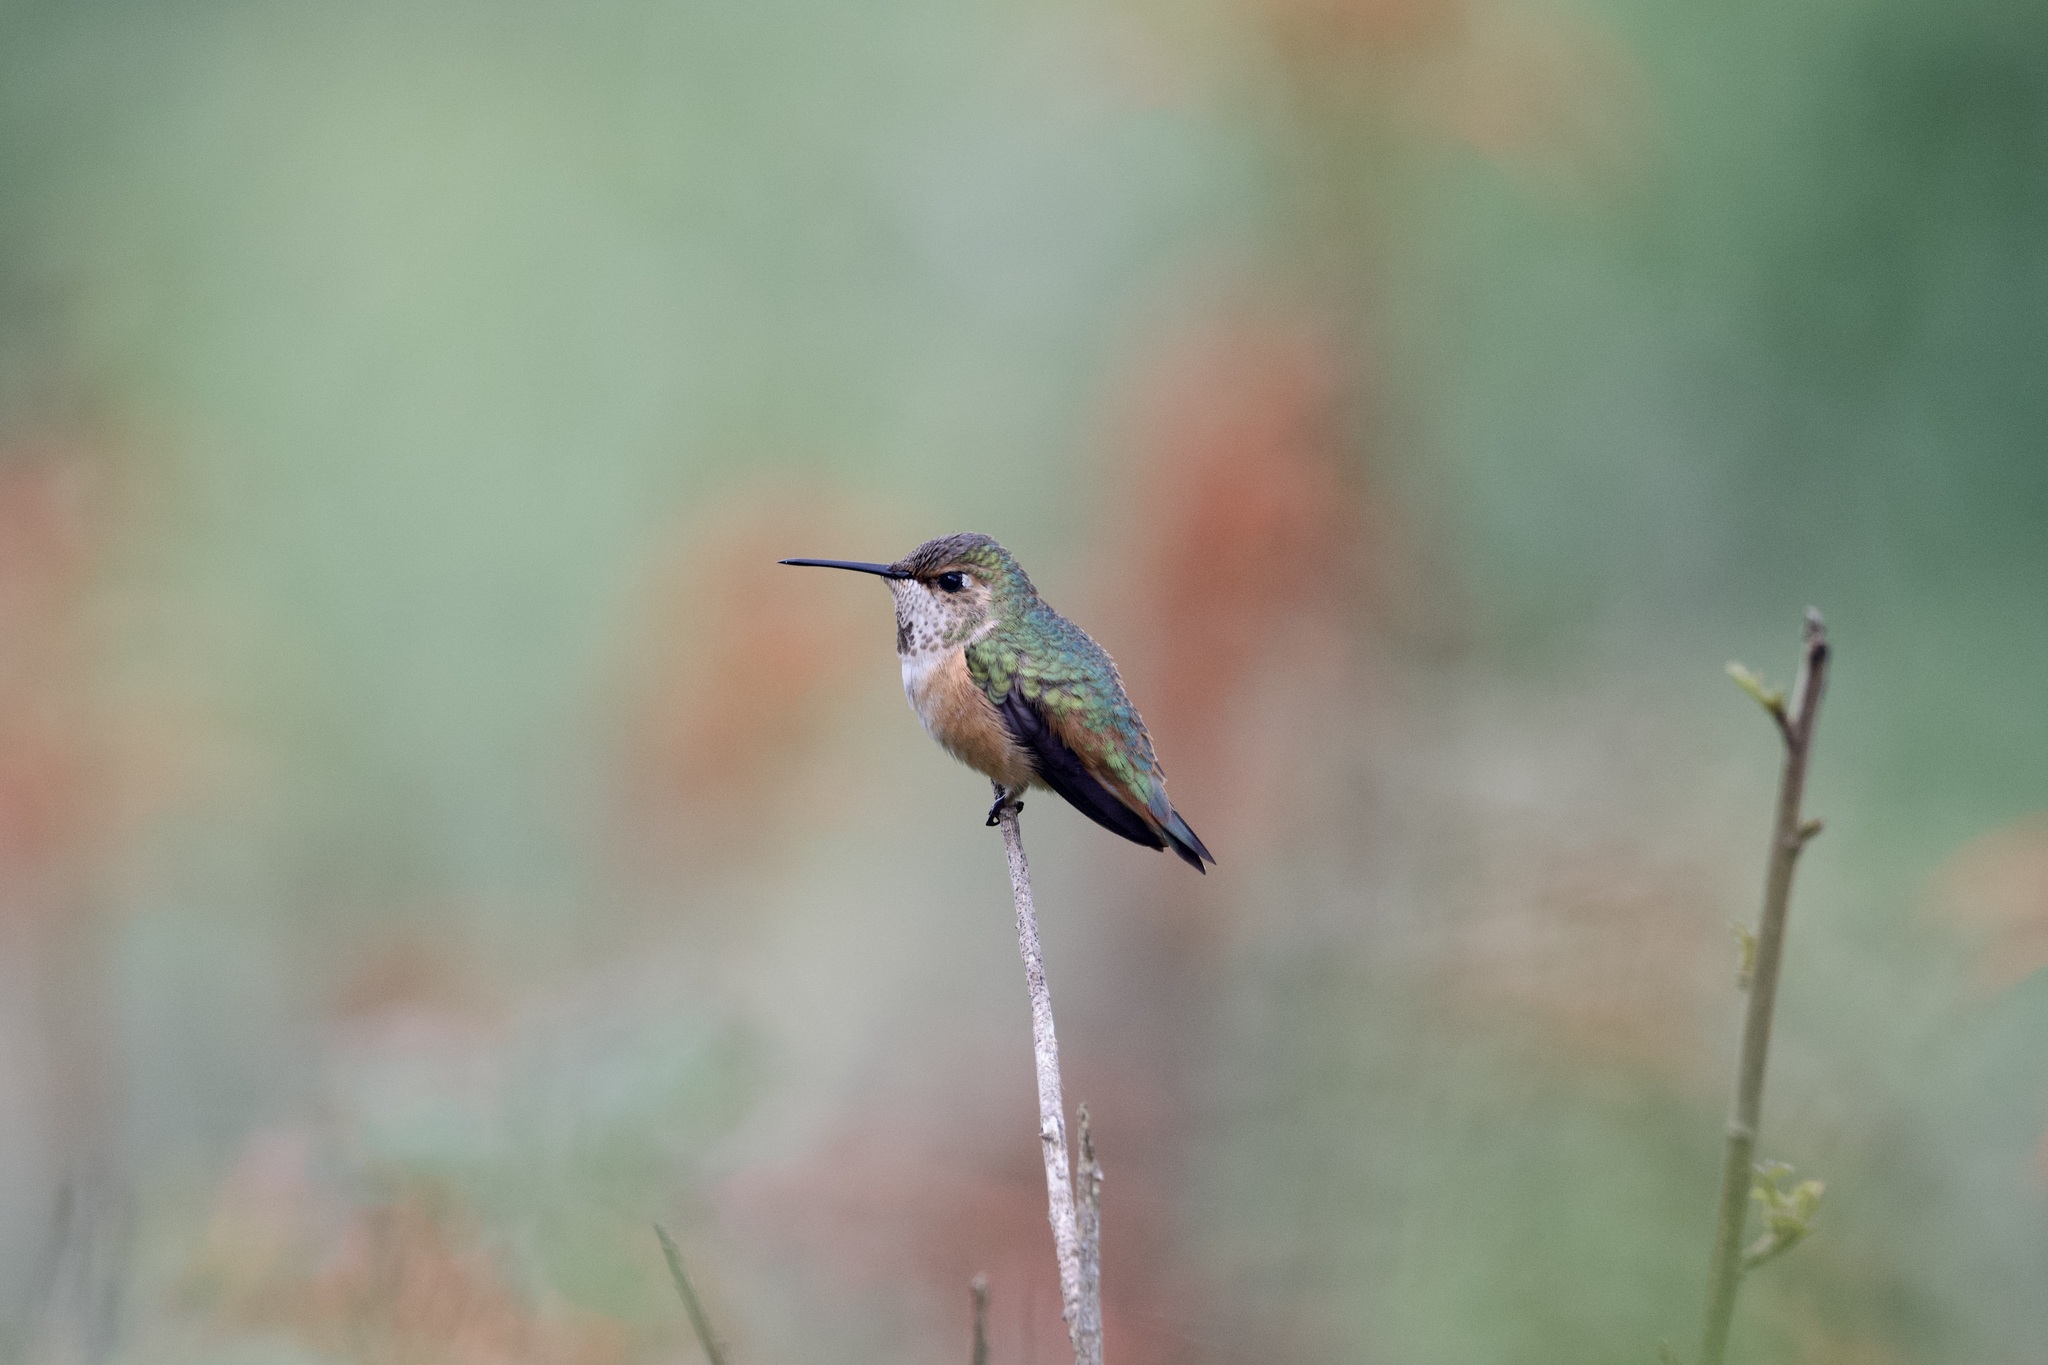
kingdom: Animalia
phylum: Chordata
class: Aves
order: Apodiformes
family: Trochilidae
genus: Selasphorus
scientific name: Selasphorus sasin
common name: Allen's hummingbird
